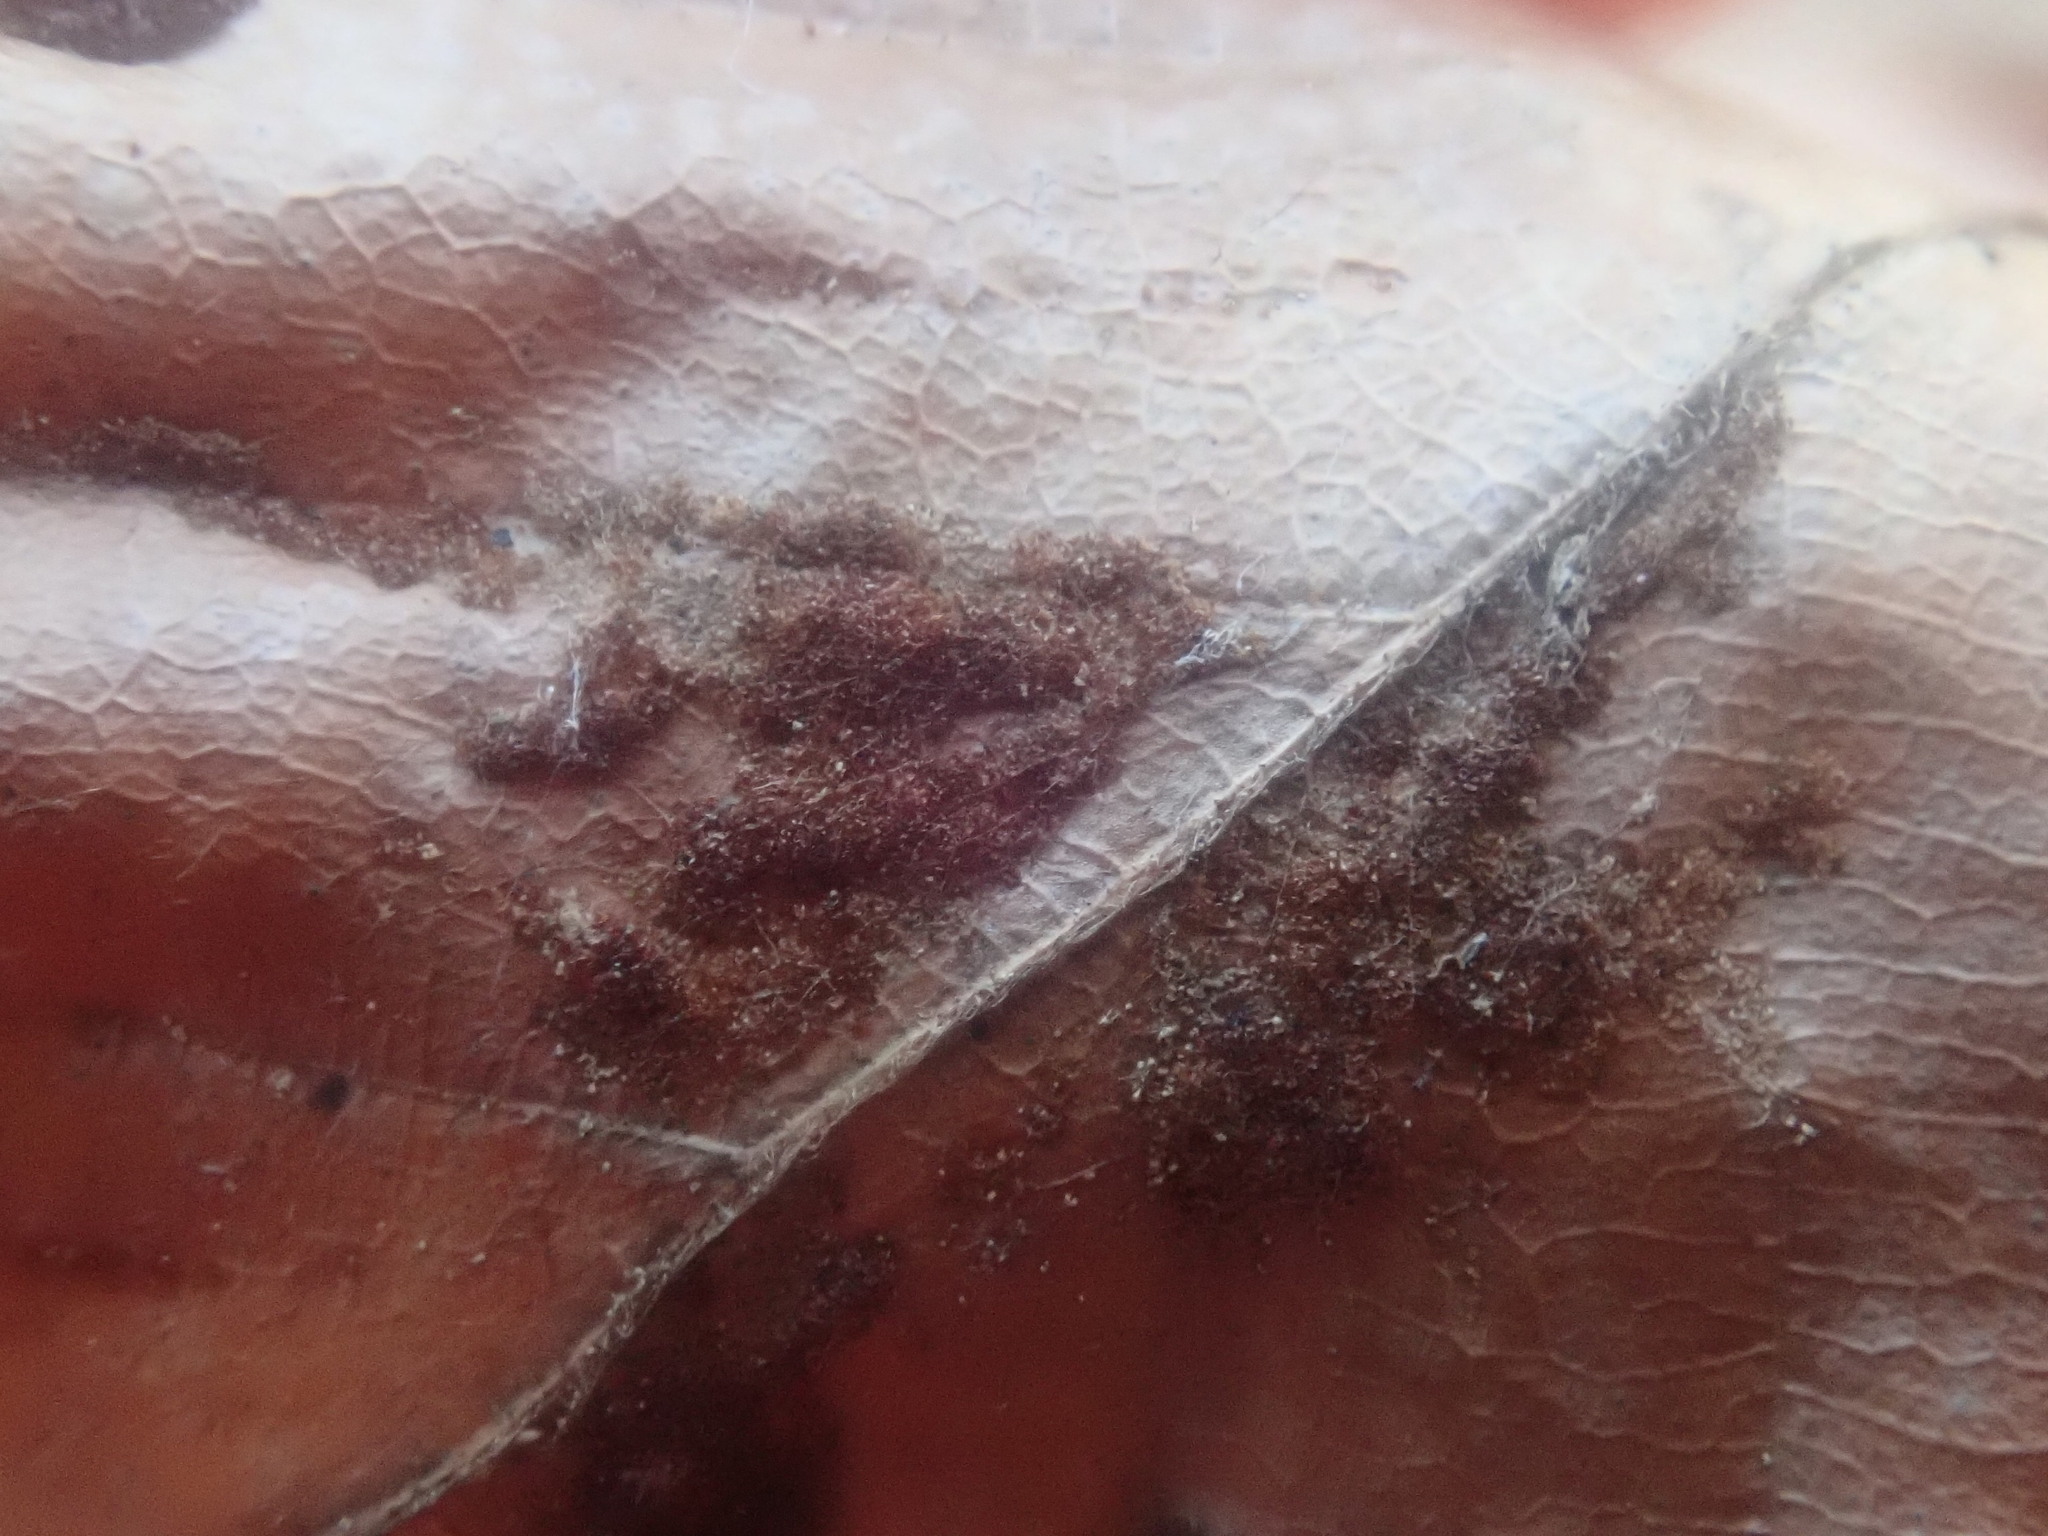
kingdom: Animalia
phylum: Arthropoda
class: Arachnida
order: Trombidiformes
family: Eriophyidae
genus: Acalitus
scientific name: Acalitus
